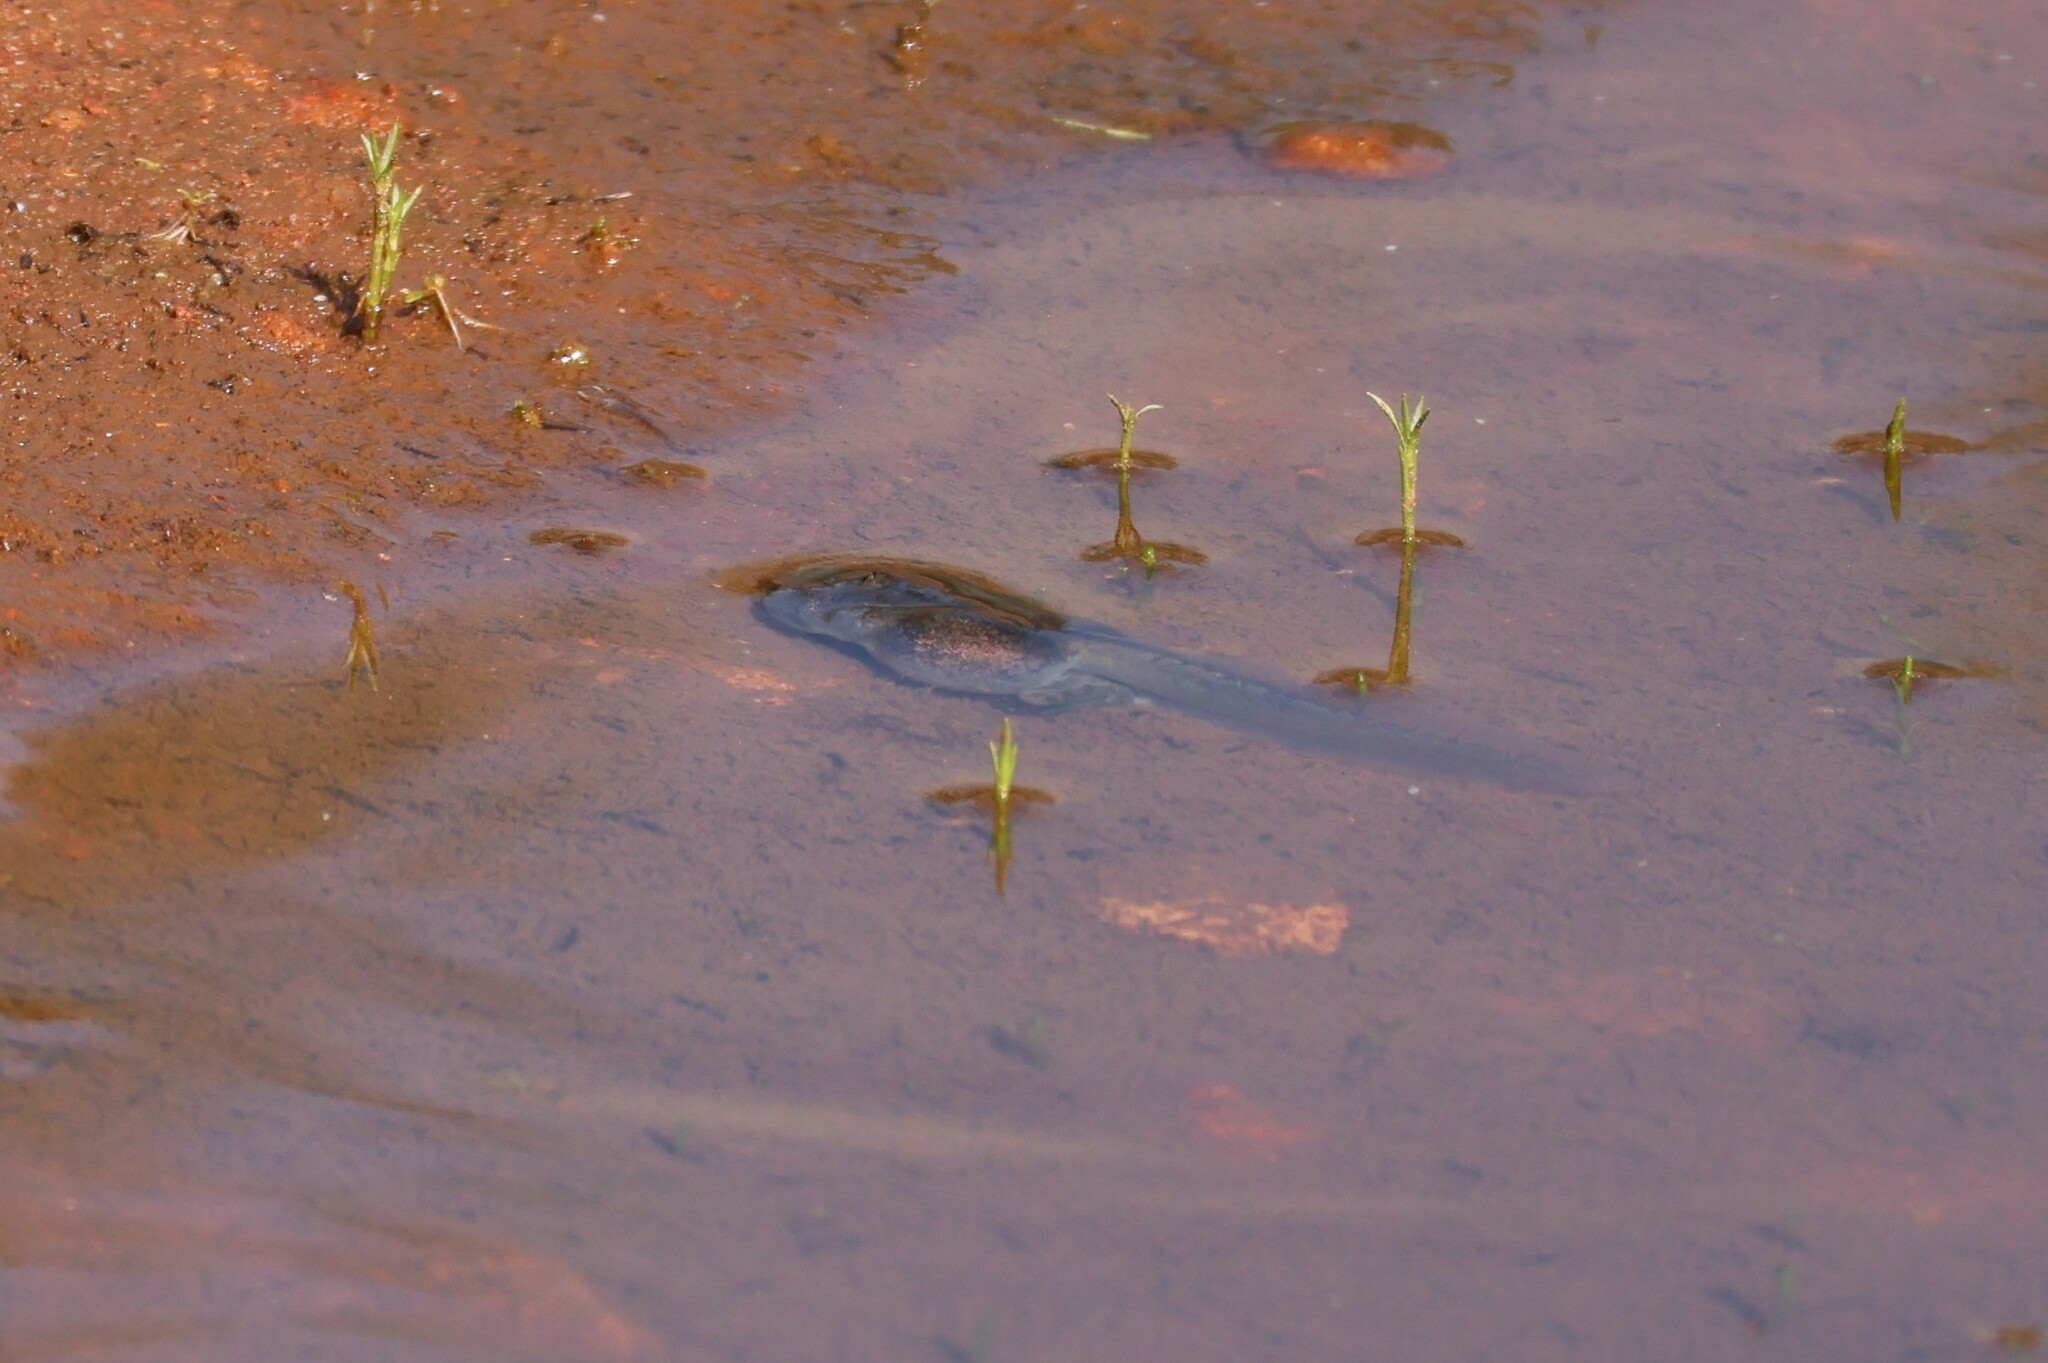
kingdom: Animalia
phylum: Chordata
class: Amphibia
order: Anura
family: Scaphiopodidae
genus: Spea
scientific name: Spea hammondii
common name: Western spadefoot toad
